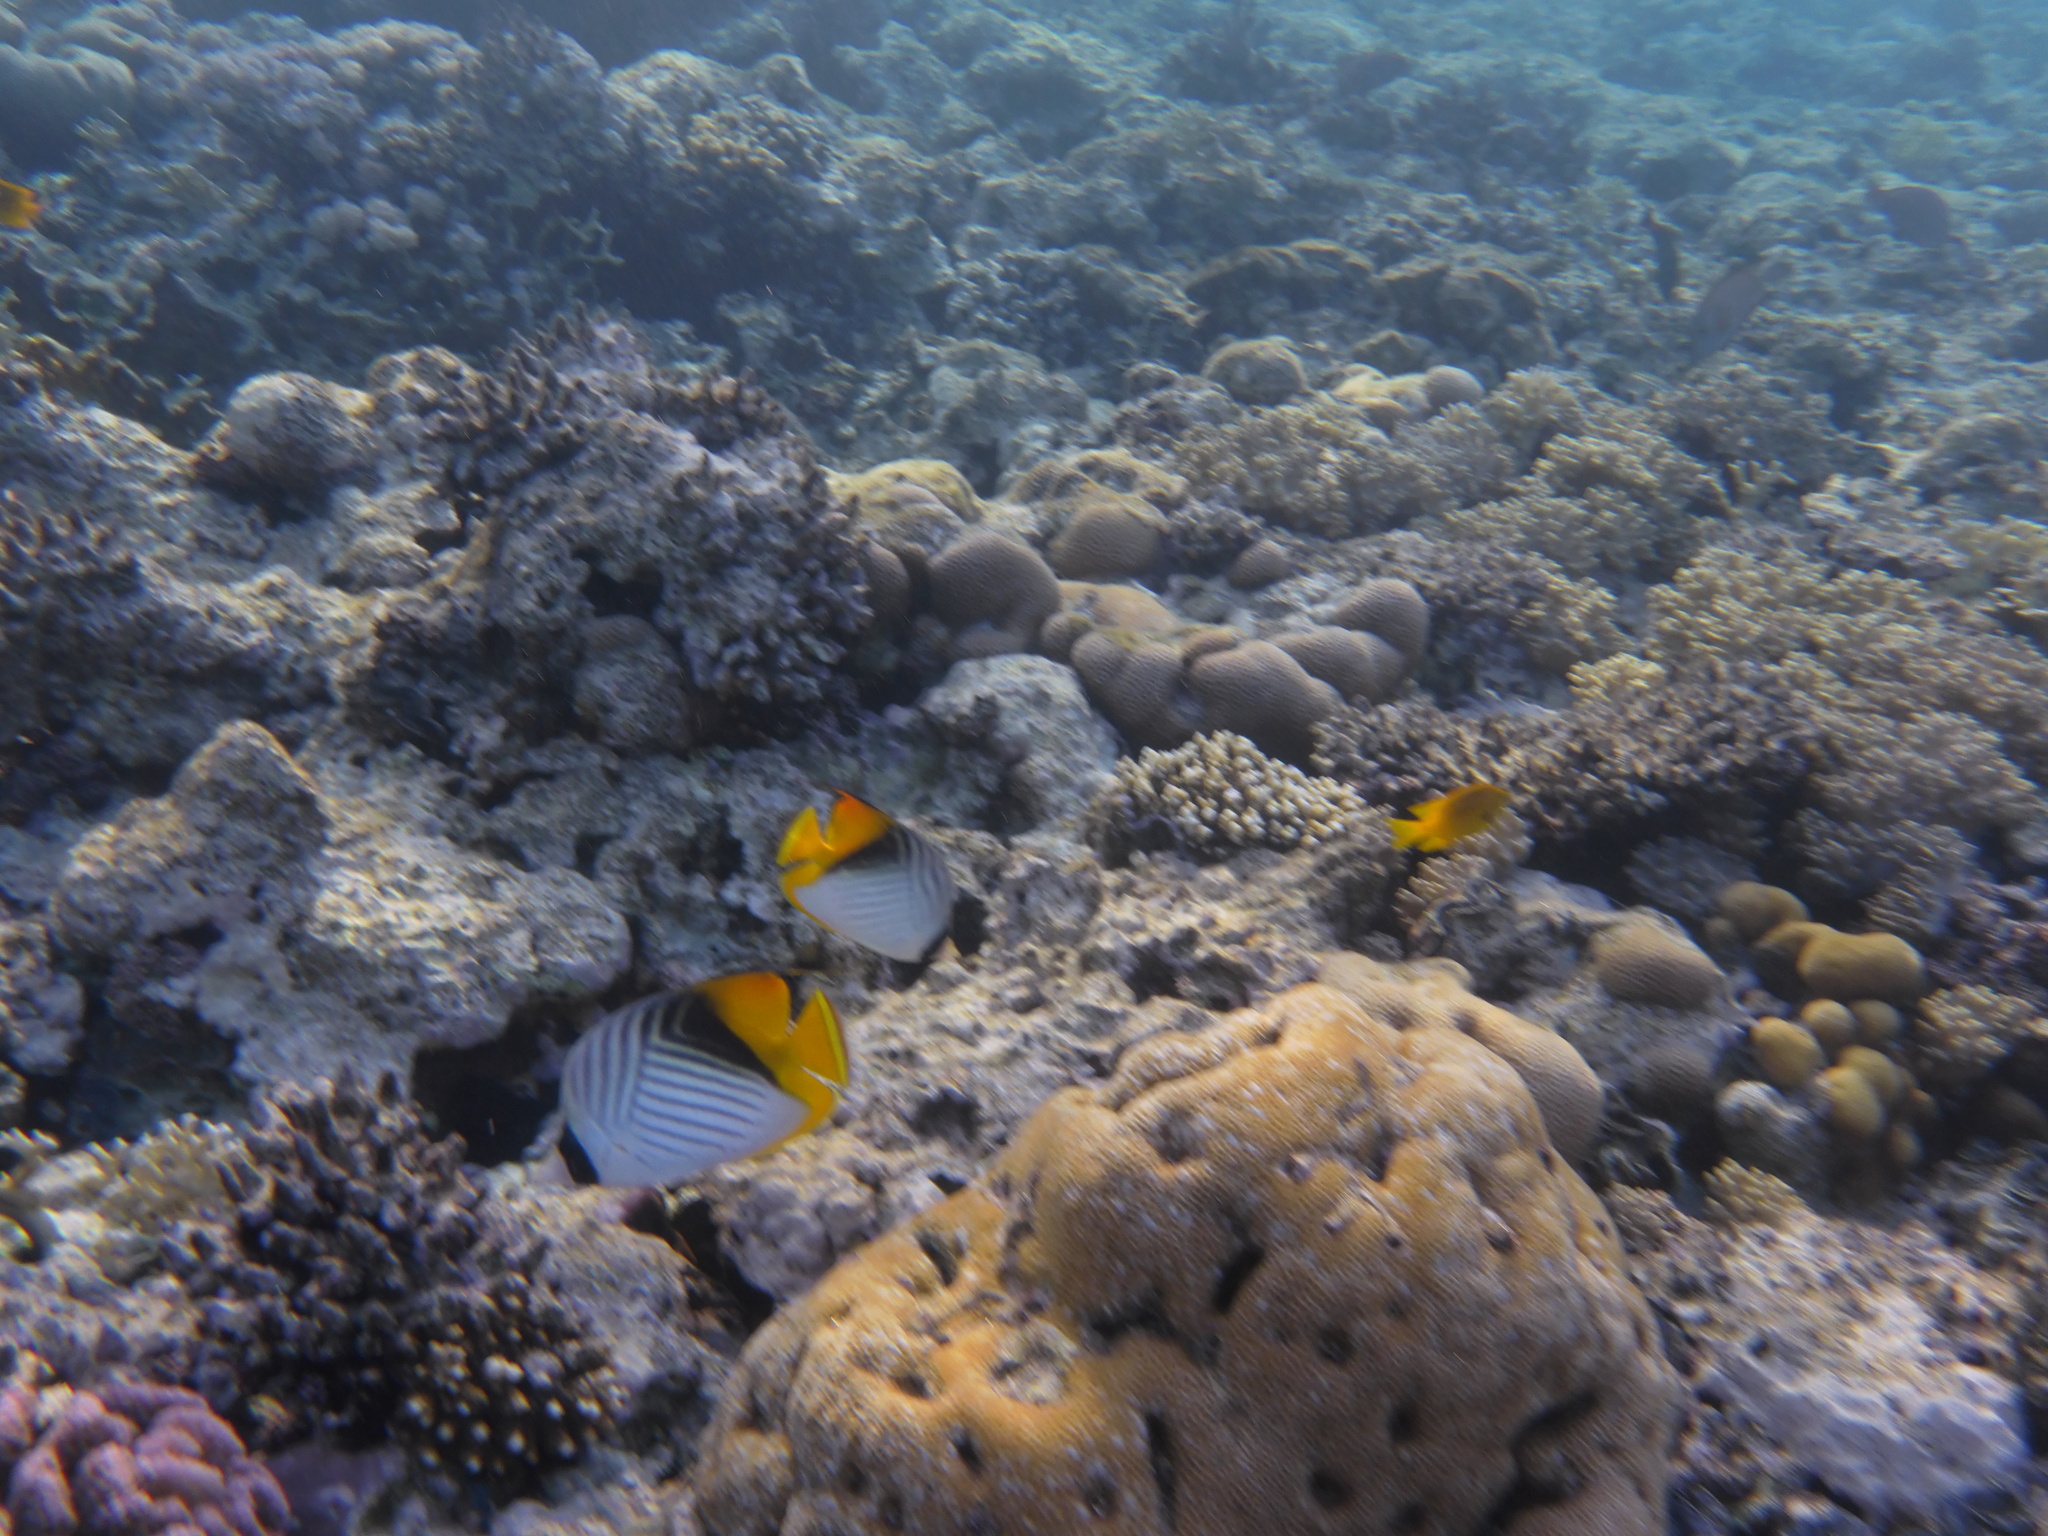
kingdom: Animalia
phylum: Chordata
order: Perciformes
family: Chaetodontidae
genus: Chaetodon
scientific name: Chaetodon auriga
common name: Threadfin butterflyfish
